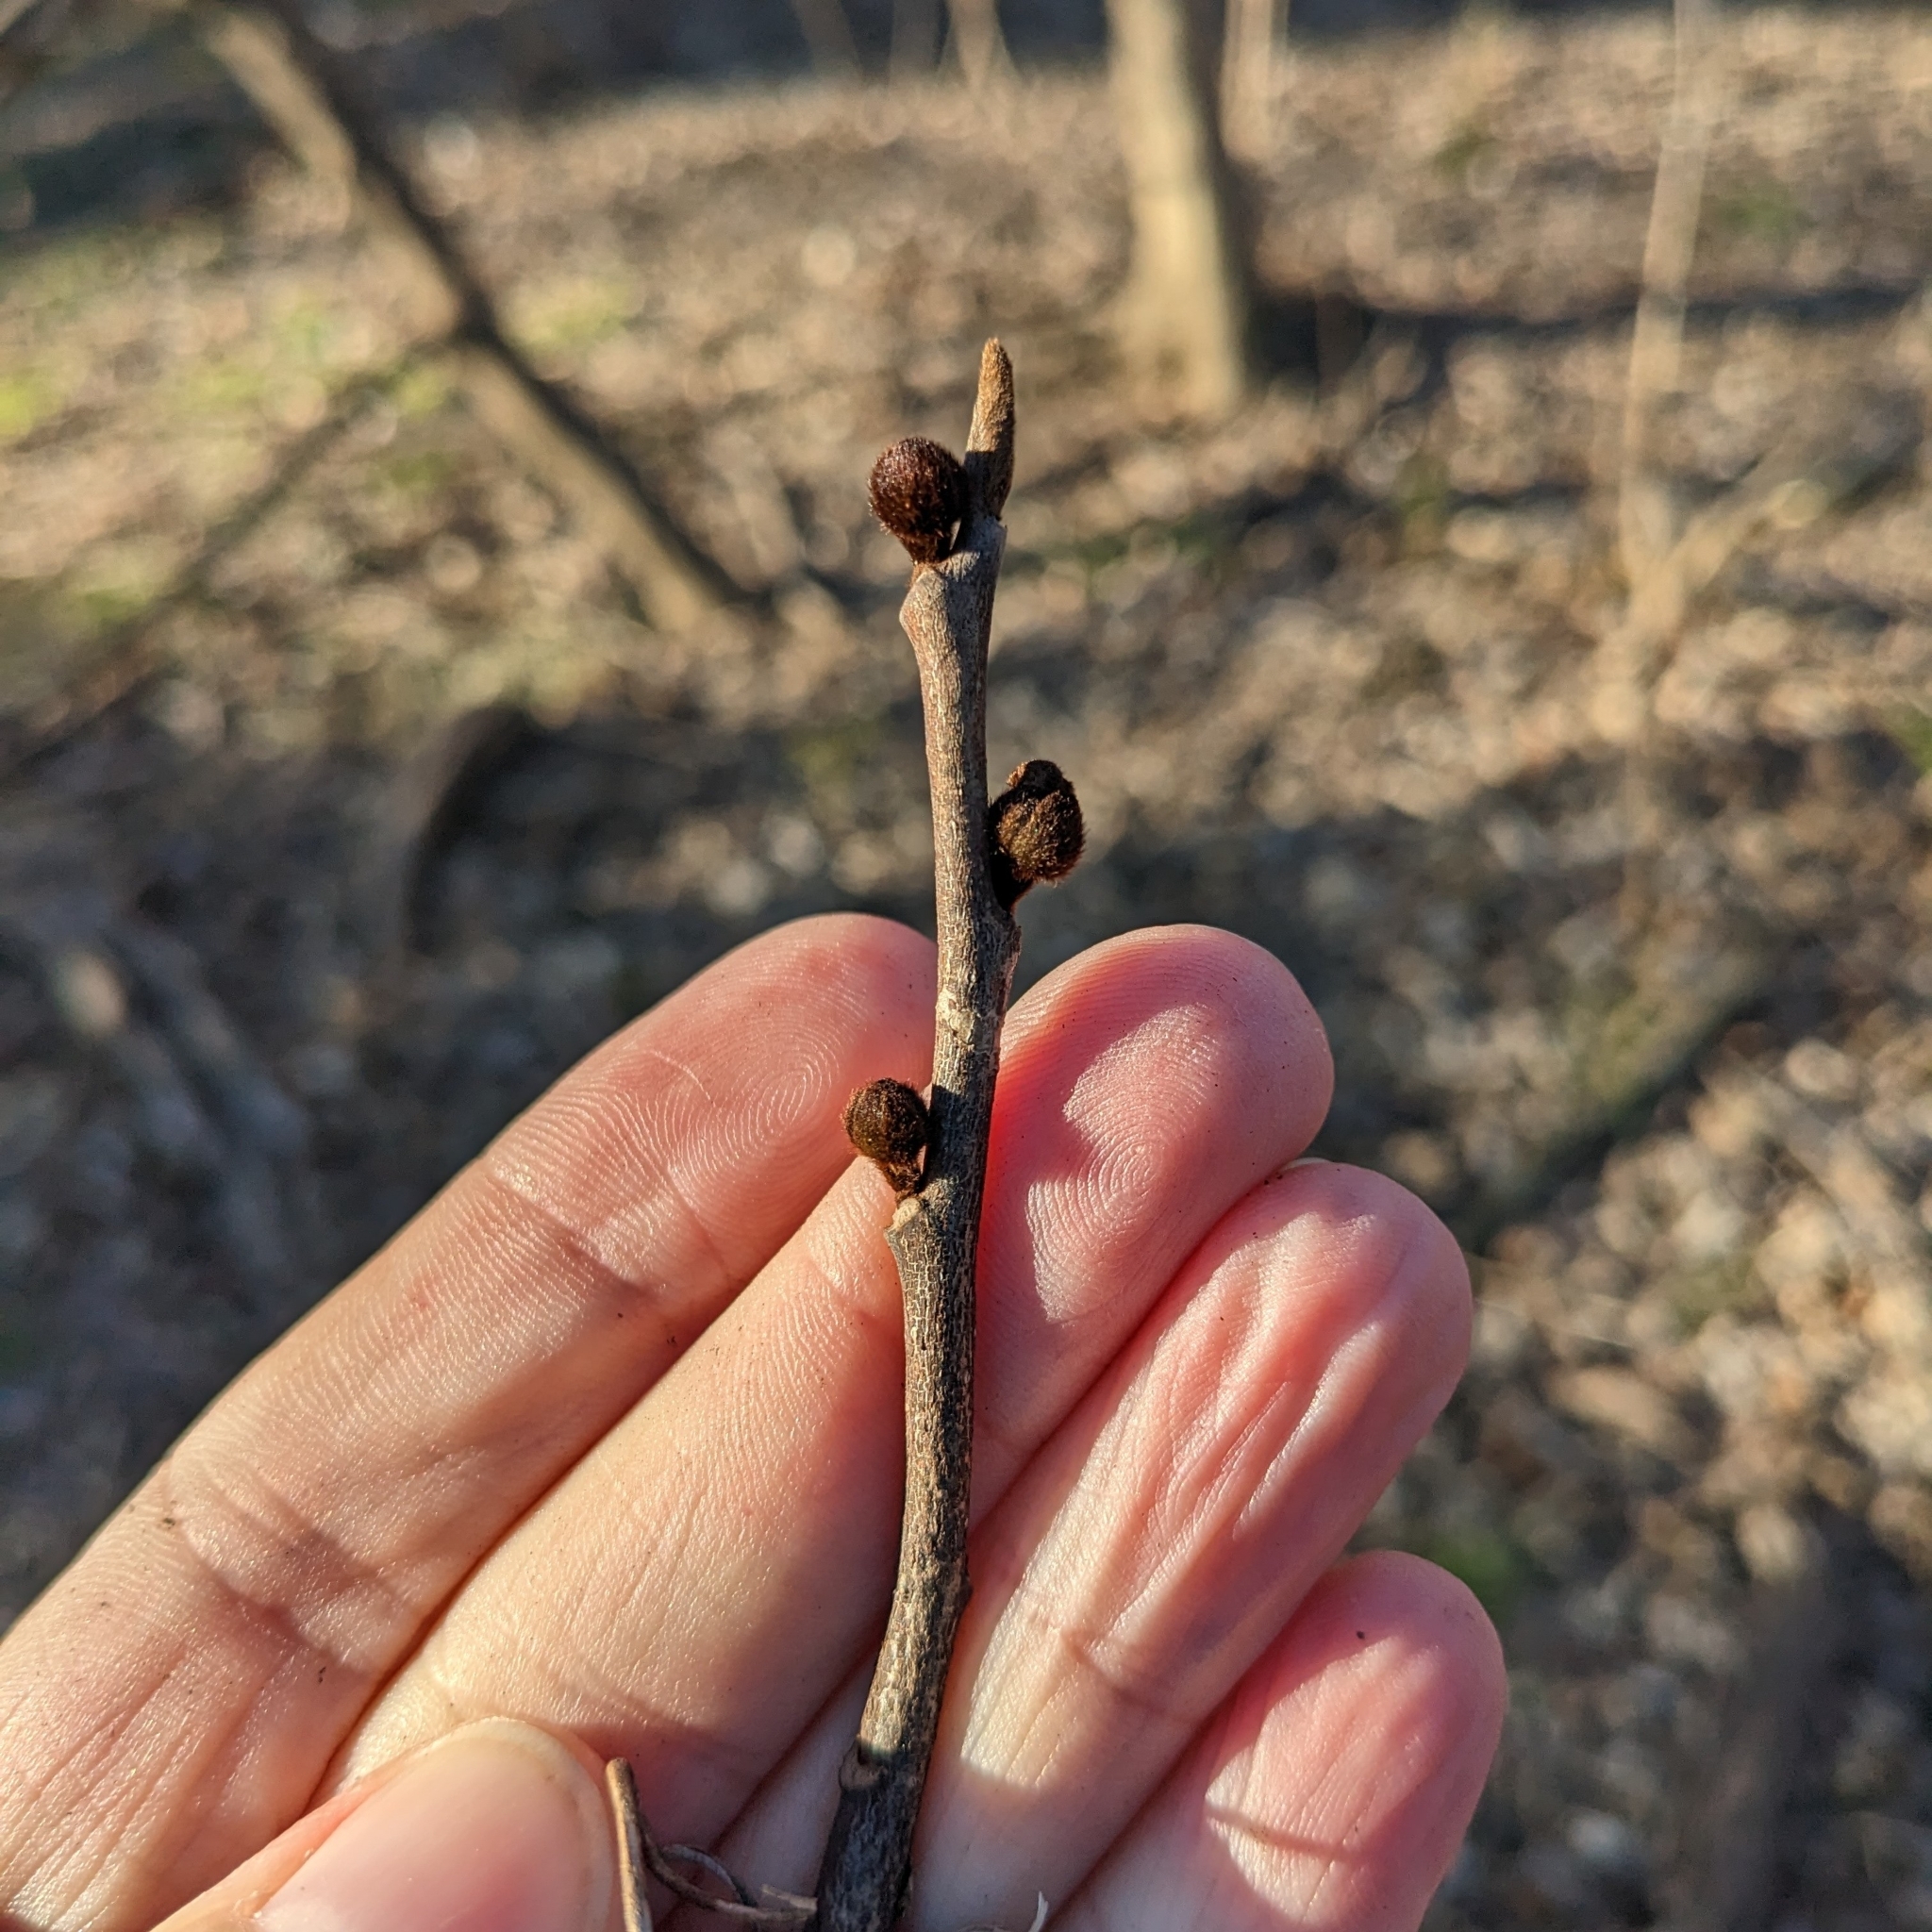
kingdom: Plantae
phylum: Tracheophyta
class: Magnoliopsida
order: Magnoliales
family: Annonaceae
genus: Asimina
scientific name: Asimina triloba
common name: Dog-banana
